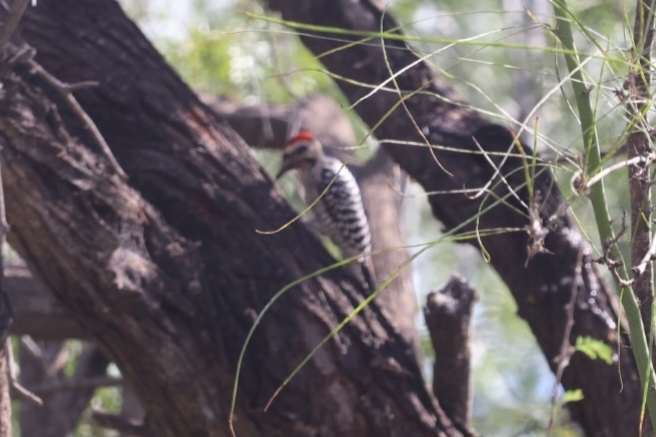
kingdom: Animalia
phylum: Chordata
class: Aves
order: Piciformes
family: Picidae
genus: Dryobates
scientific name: Dryobates scalaris
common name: Ladder-backed woodpecker
